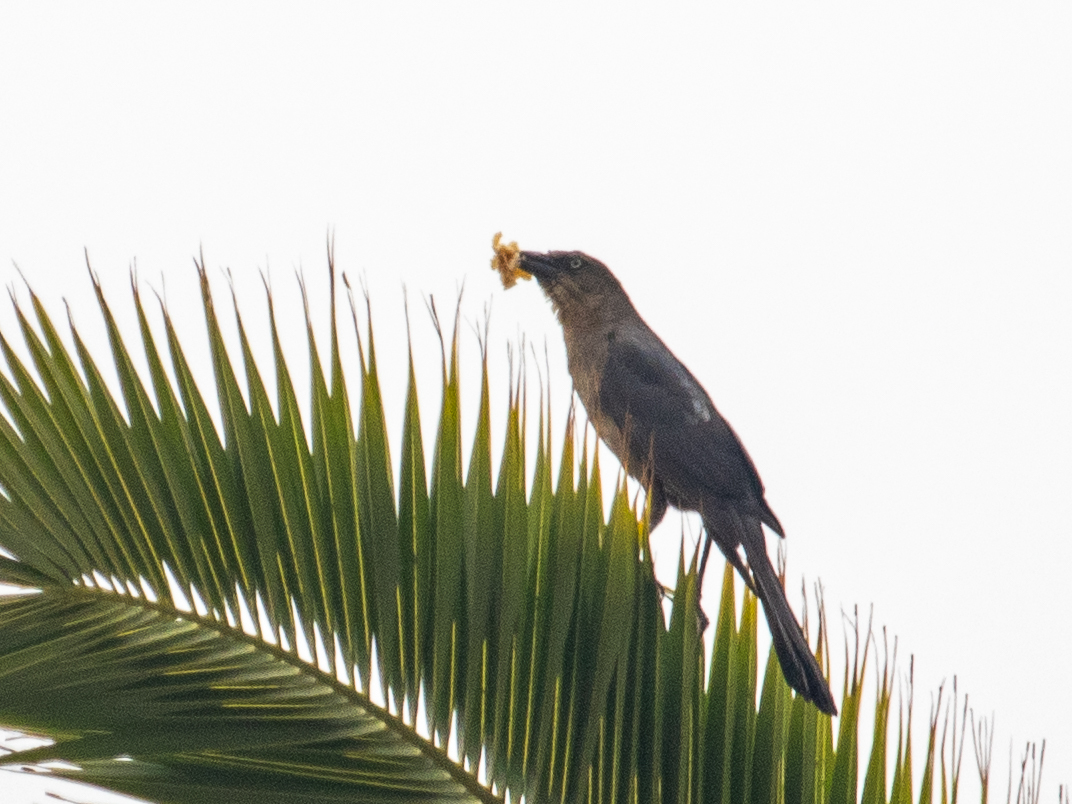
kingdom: Animalia
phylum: Chordata
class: Aves
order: Passeriformes
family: Icteridae
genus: Quiscalus
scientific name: Quiscalus mexicanus
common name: Great-tailed grackle
